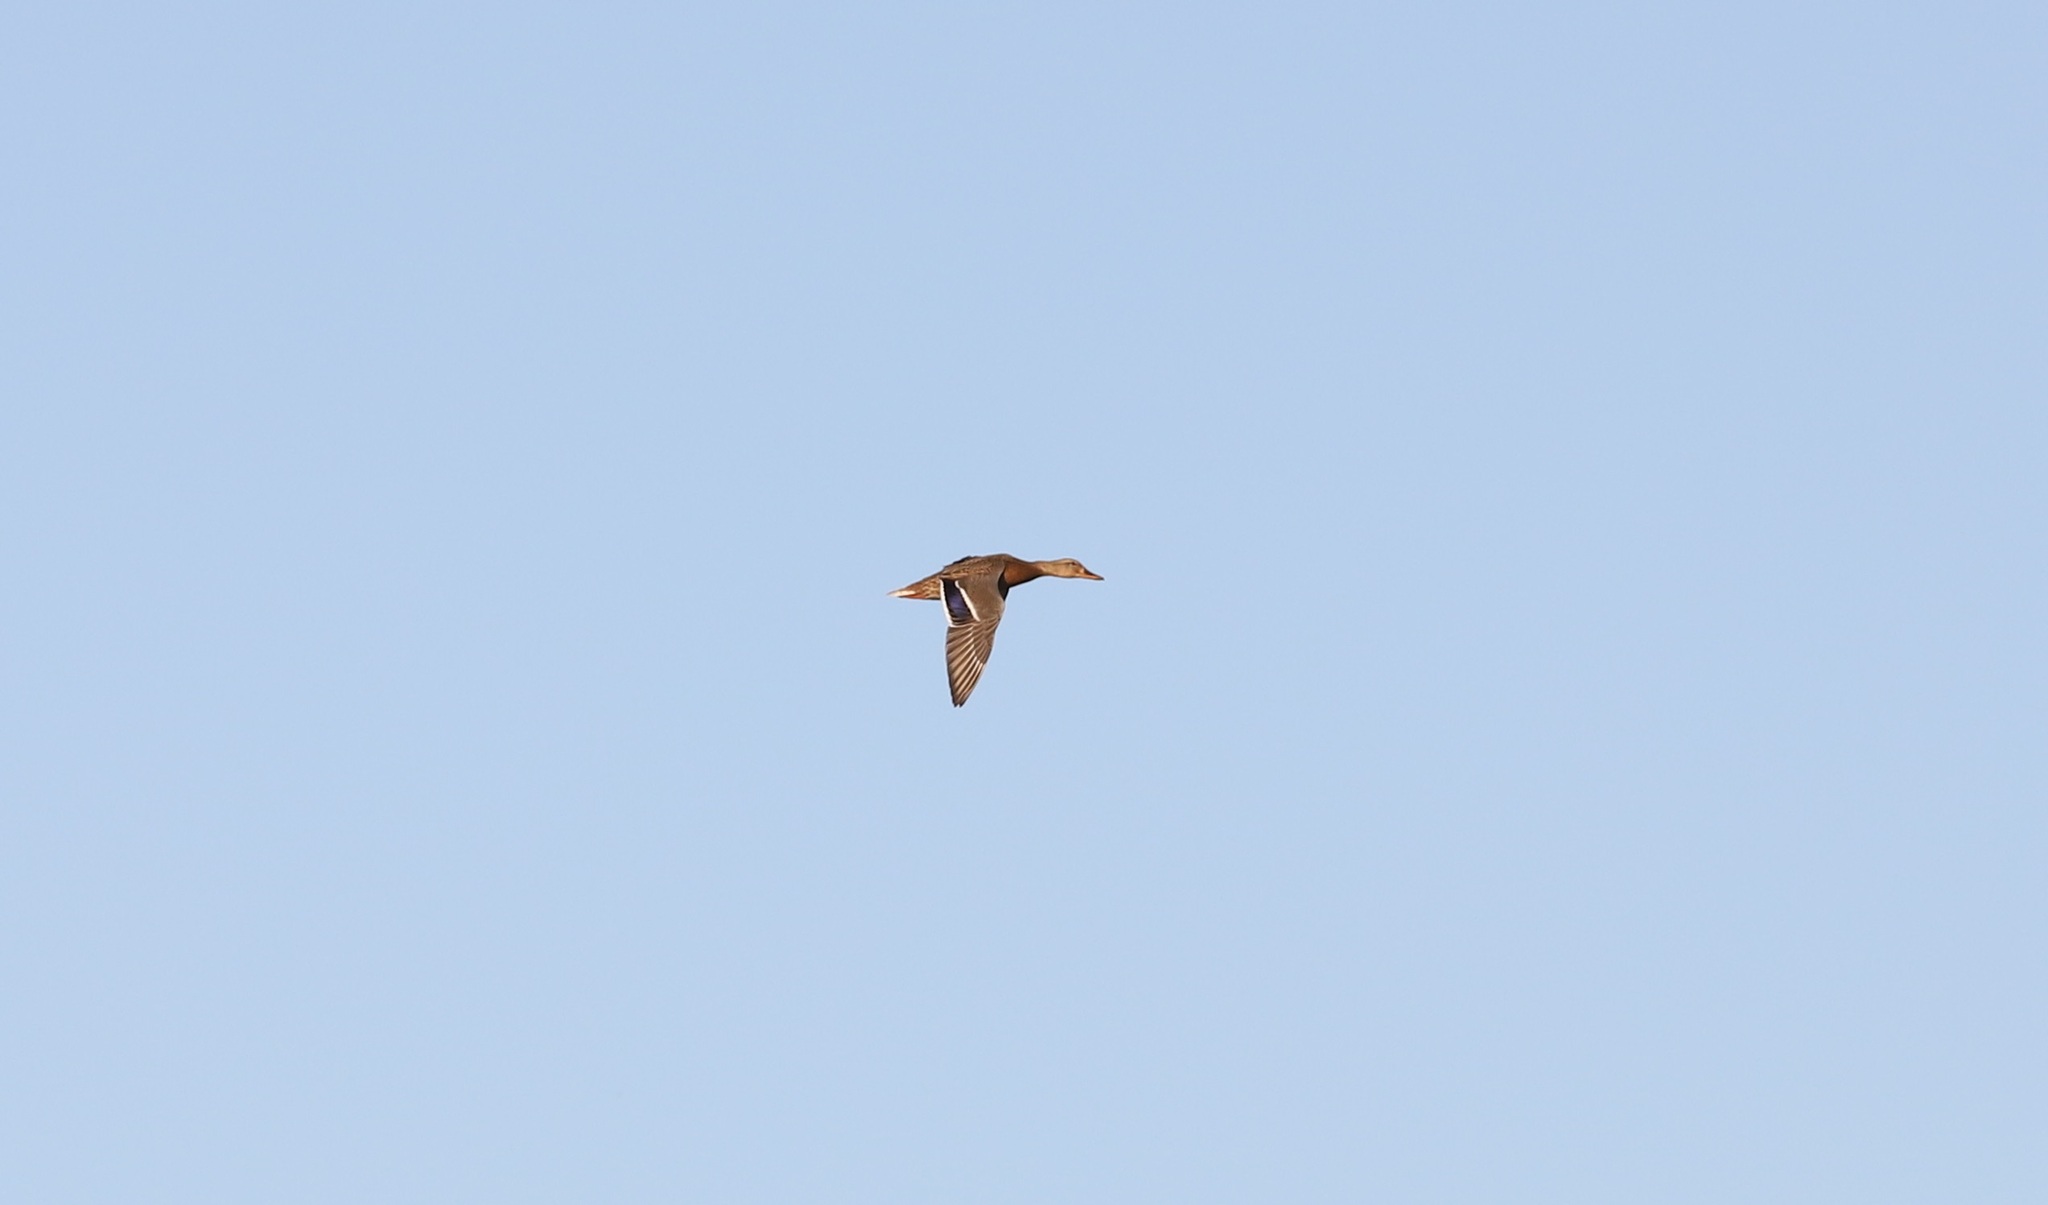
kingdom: Animalia
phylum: Chordata
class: Aves
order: Anseriformes
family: Anatidae
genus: Anas
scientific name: Anas platyrhynchos
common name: Mallard
